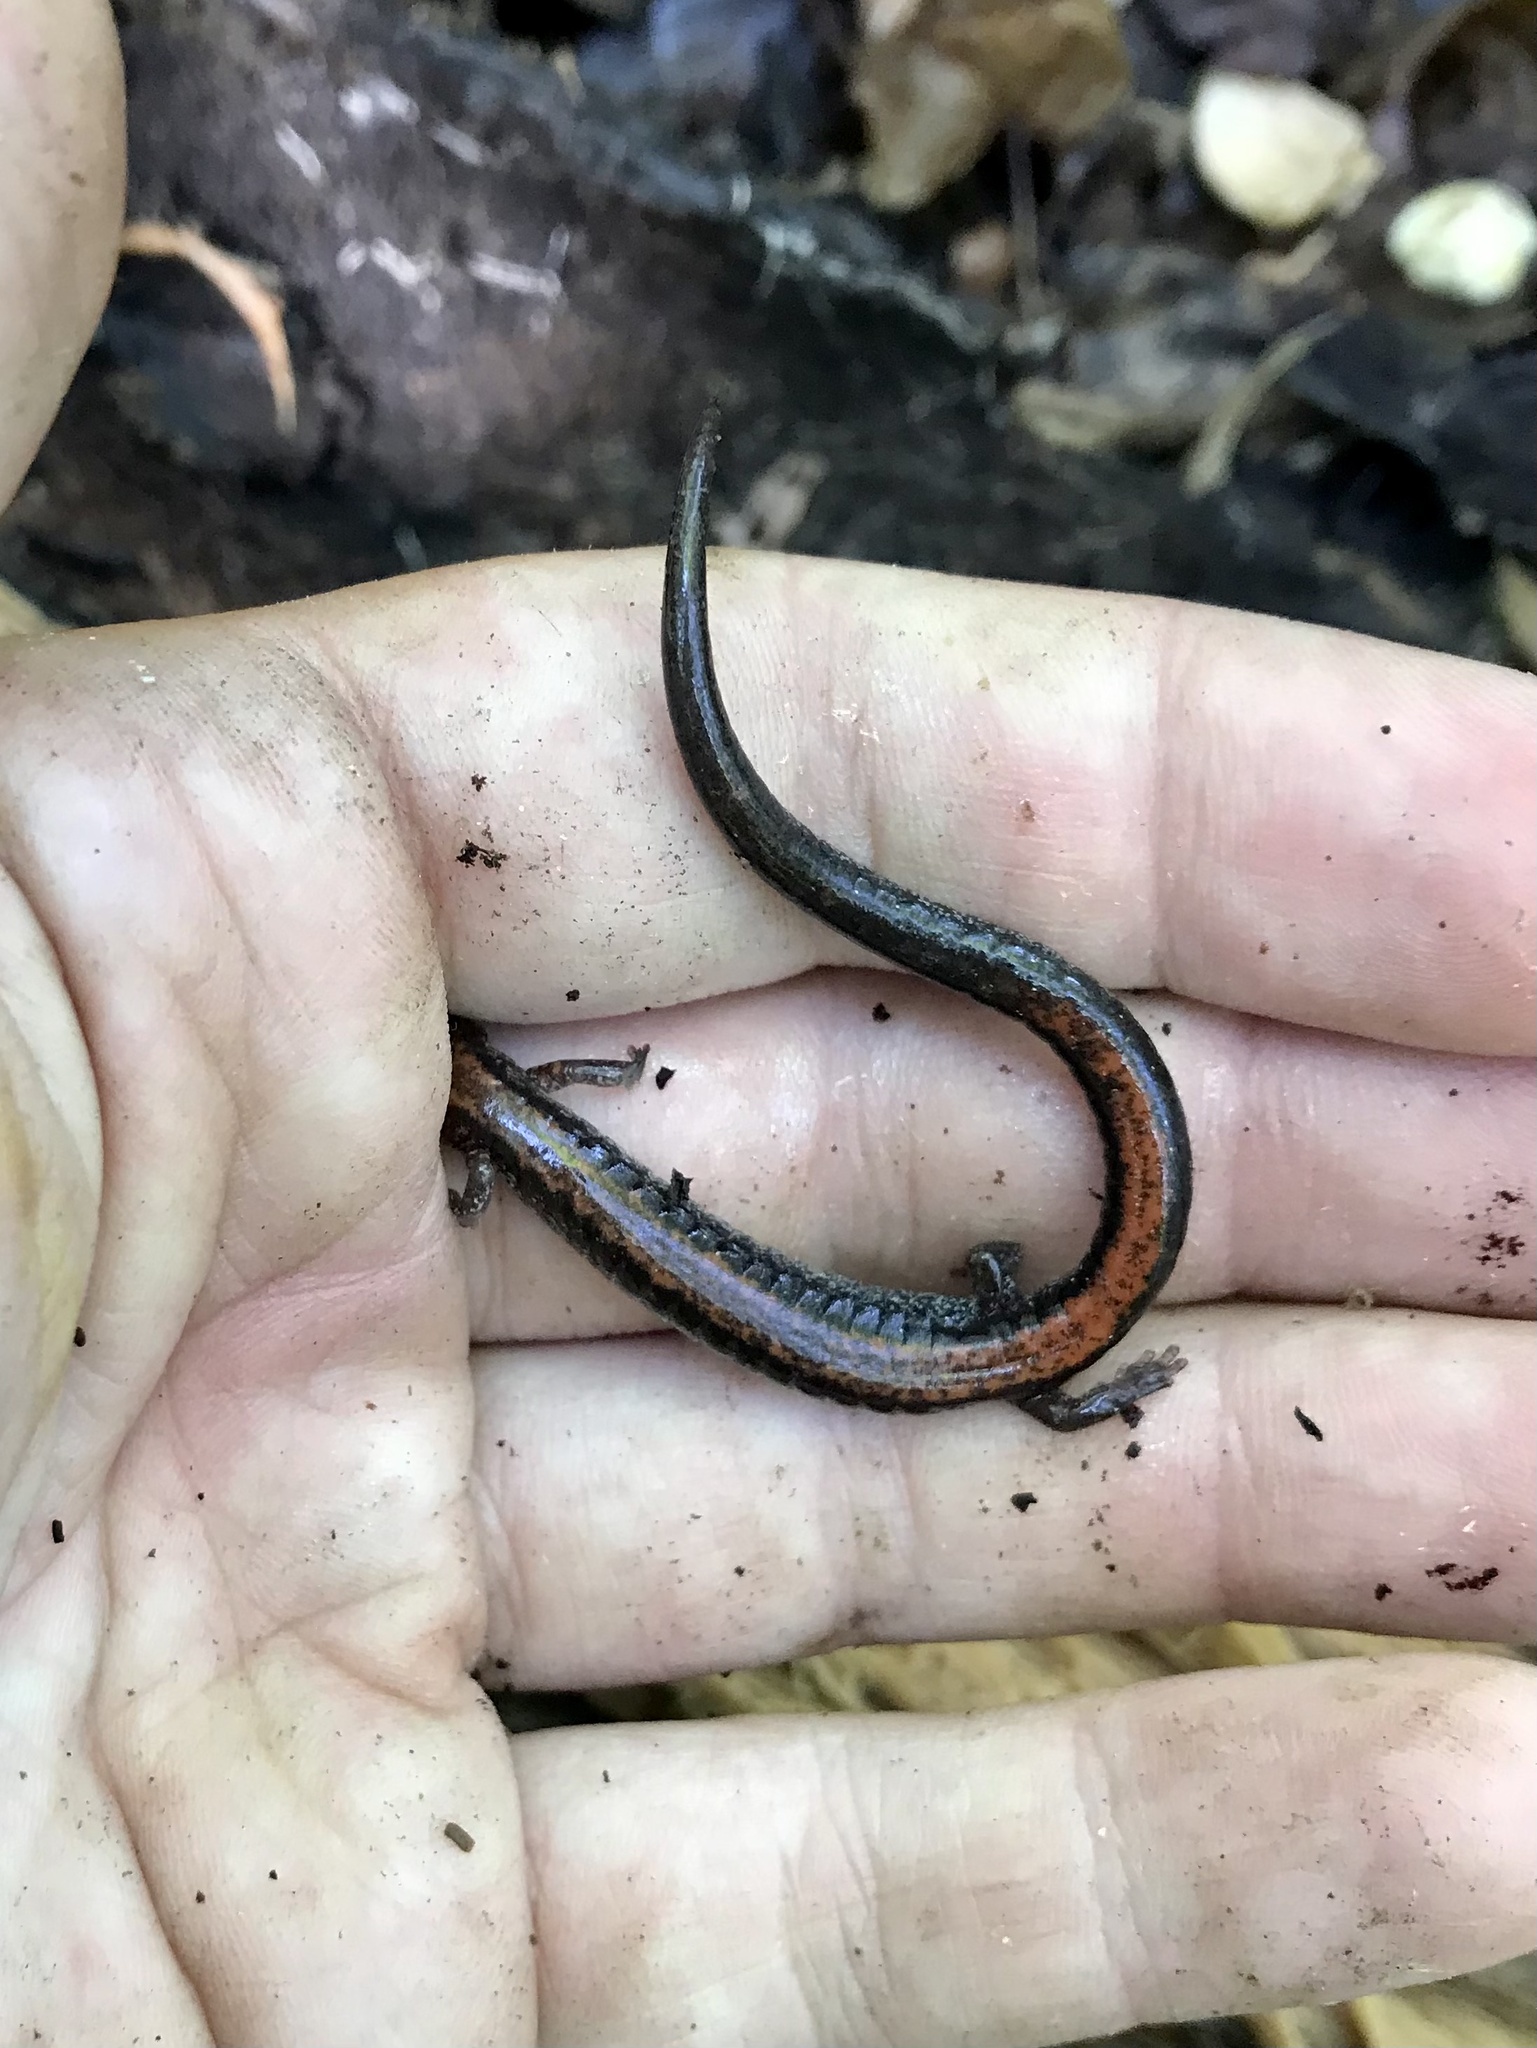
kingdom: Animalia
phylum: Chordata
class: Amphibia
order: Caudata
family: Plethodontidae
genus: Plethodon
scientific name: Plethodon cinereus
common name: Redback salamander
